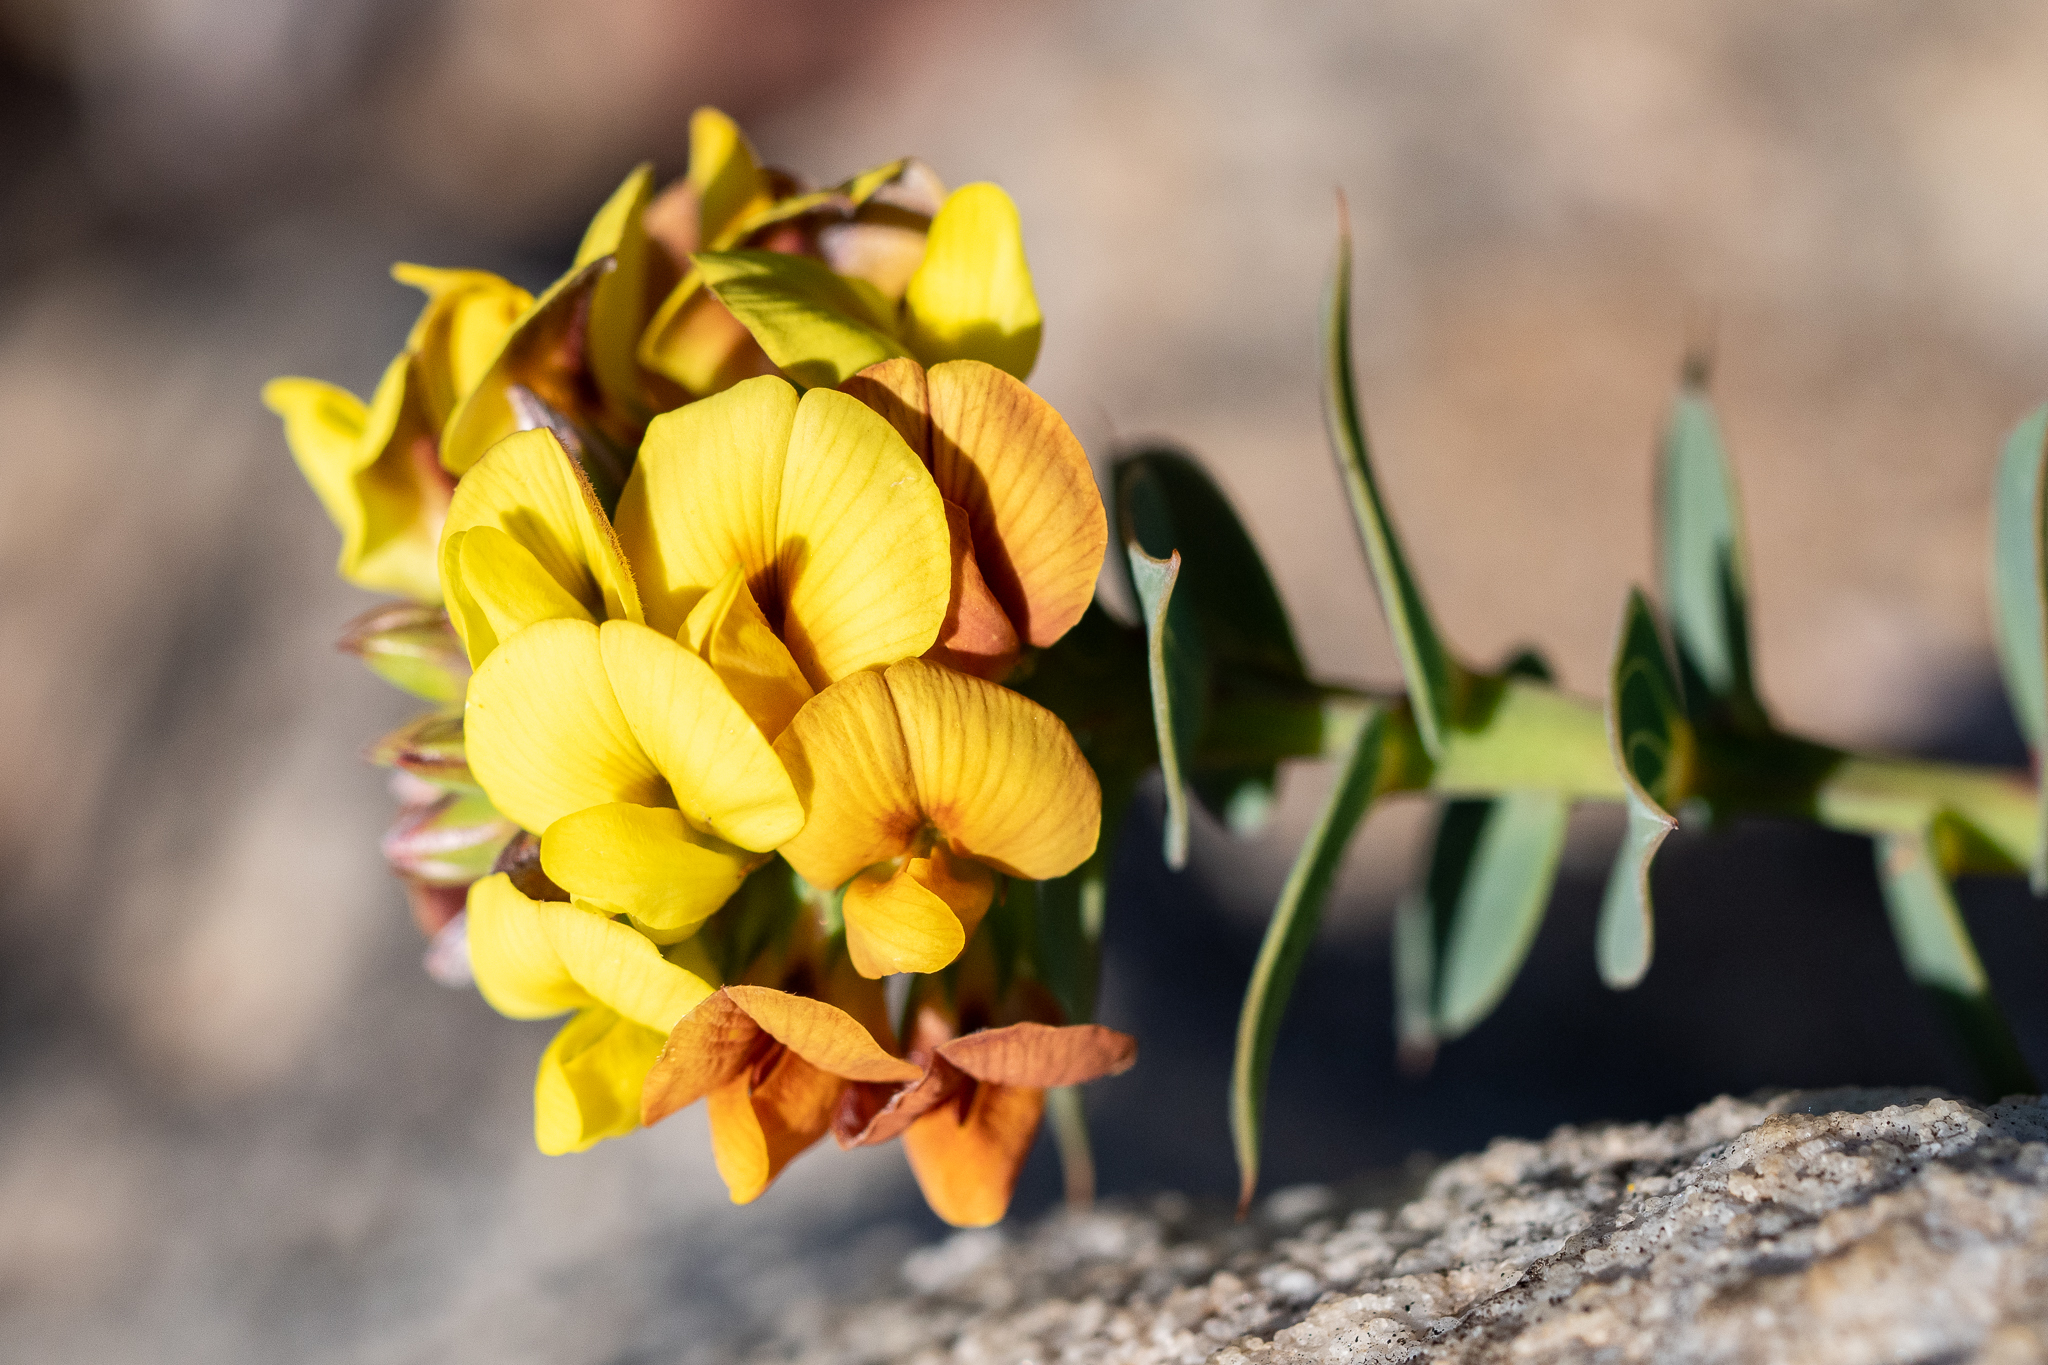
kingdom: Plantae
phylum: Tracheophyta
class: Magnoliopsida
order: Fabales
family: Fabaceae
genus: Aspalathus
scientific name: Aspalathus crenata
